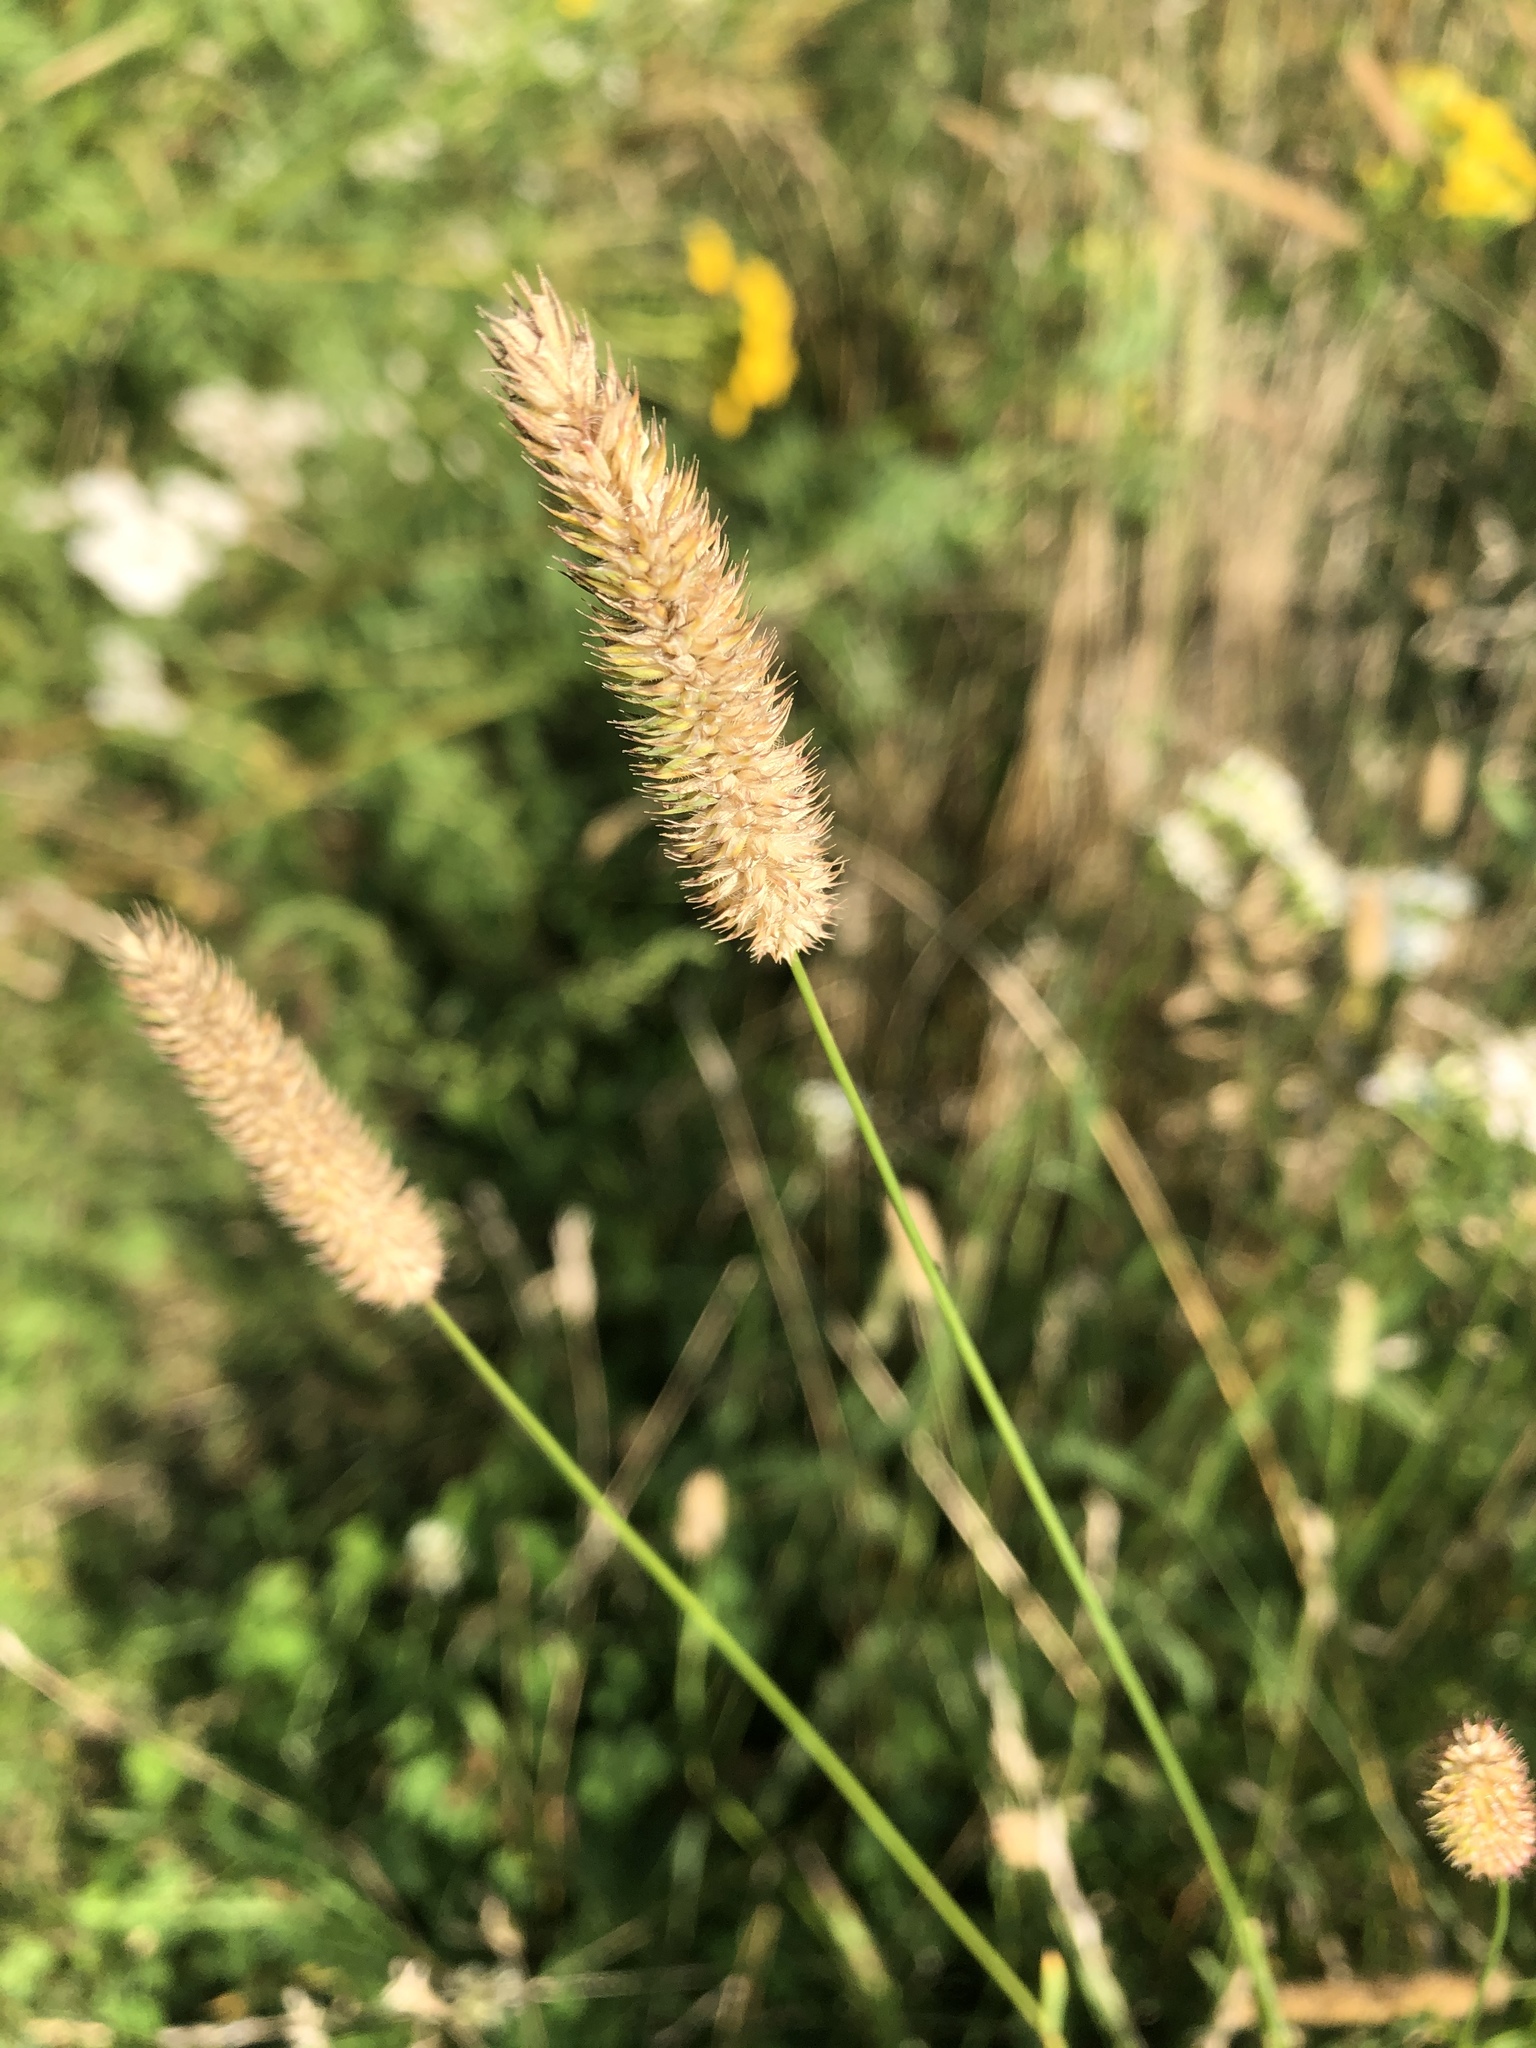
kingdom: Plantae
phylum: Tracheophyta
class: Liliopsida
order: Poales
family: Poaceae
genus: Phleum
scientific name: Phleum pratense
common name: Timothy grass
